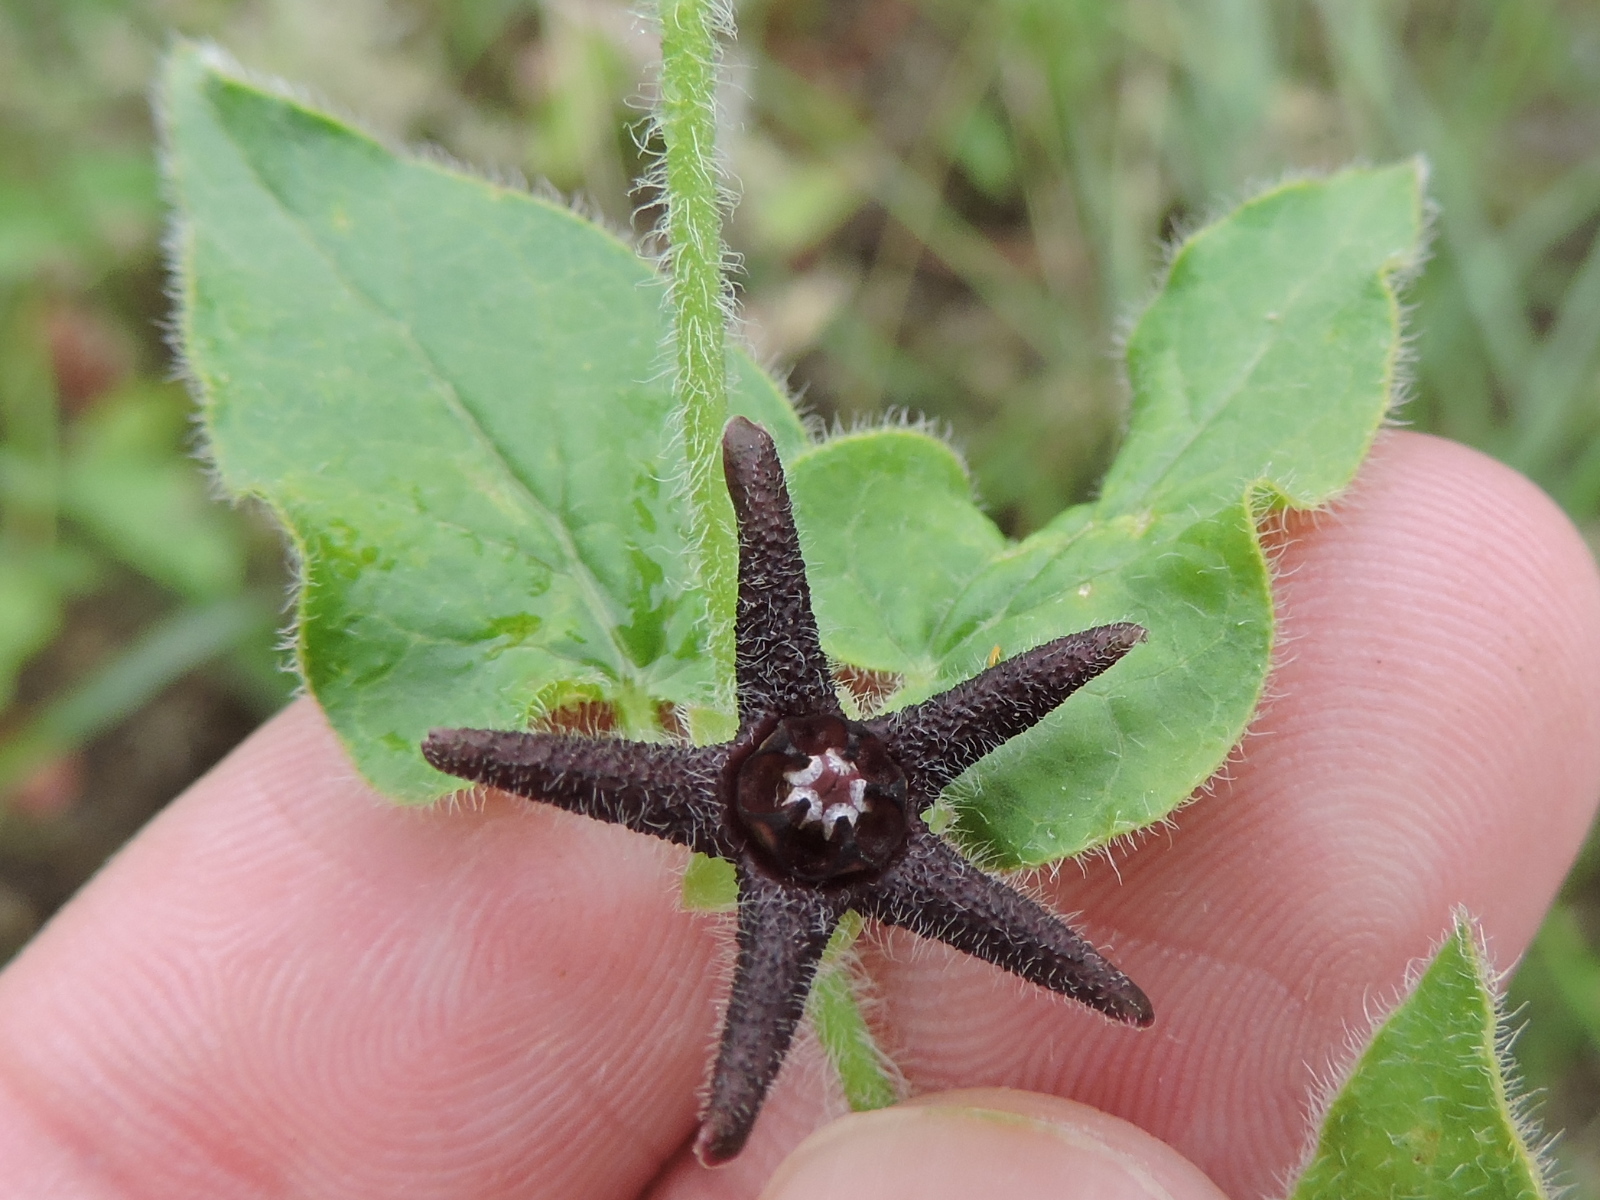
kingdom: Plantae
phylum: Tracheophyta
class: Magnoliopsida
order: Gentianales
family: Apocynaceae
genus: Chthamalia
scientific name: Chthamalia biflora
